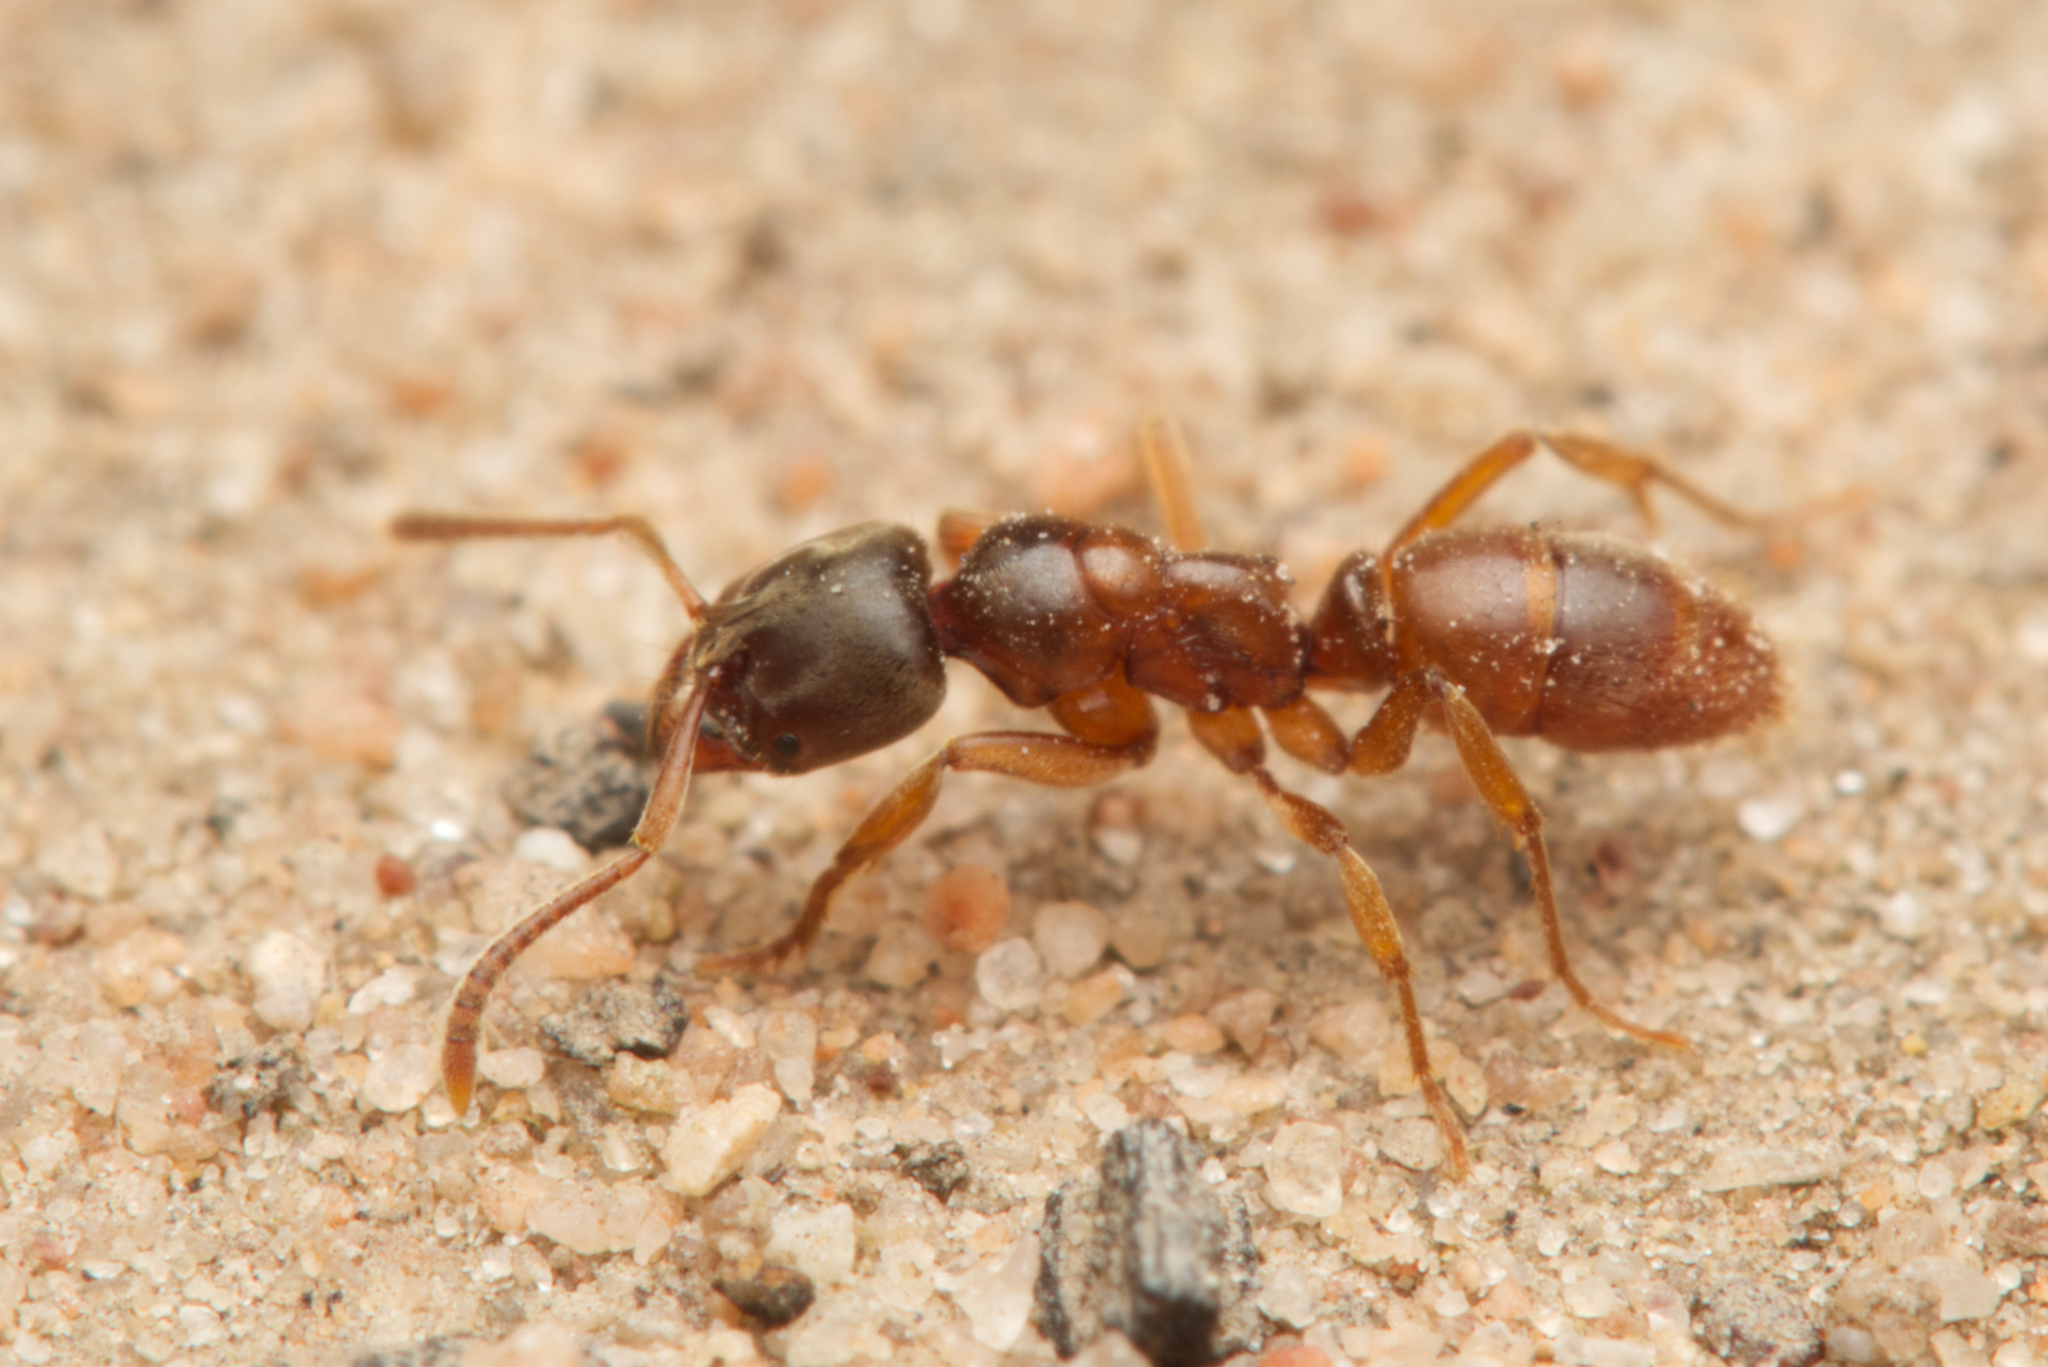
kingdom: Animalia
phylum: Arthropoda
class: Insecta
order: Hymenoptera
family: Formicidae
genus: Brachyponera
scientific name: Brachyponera
